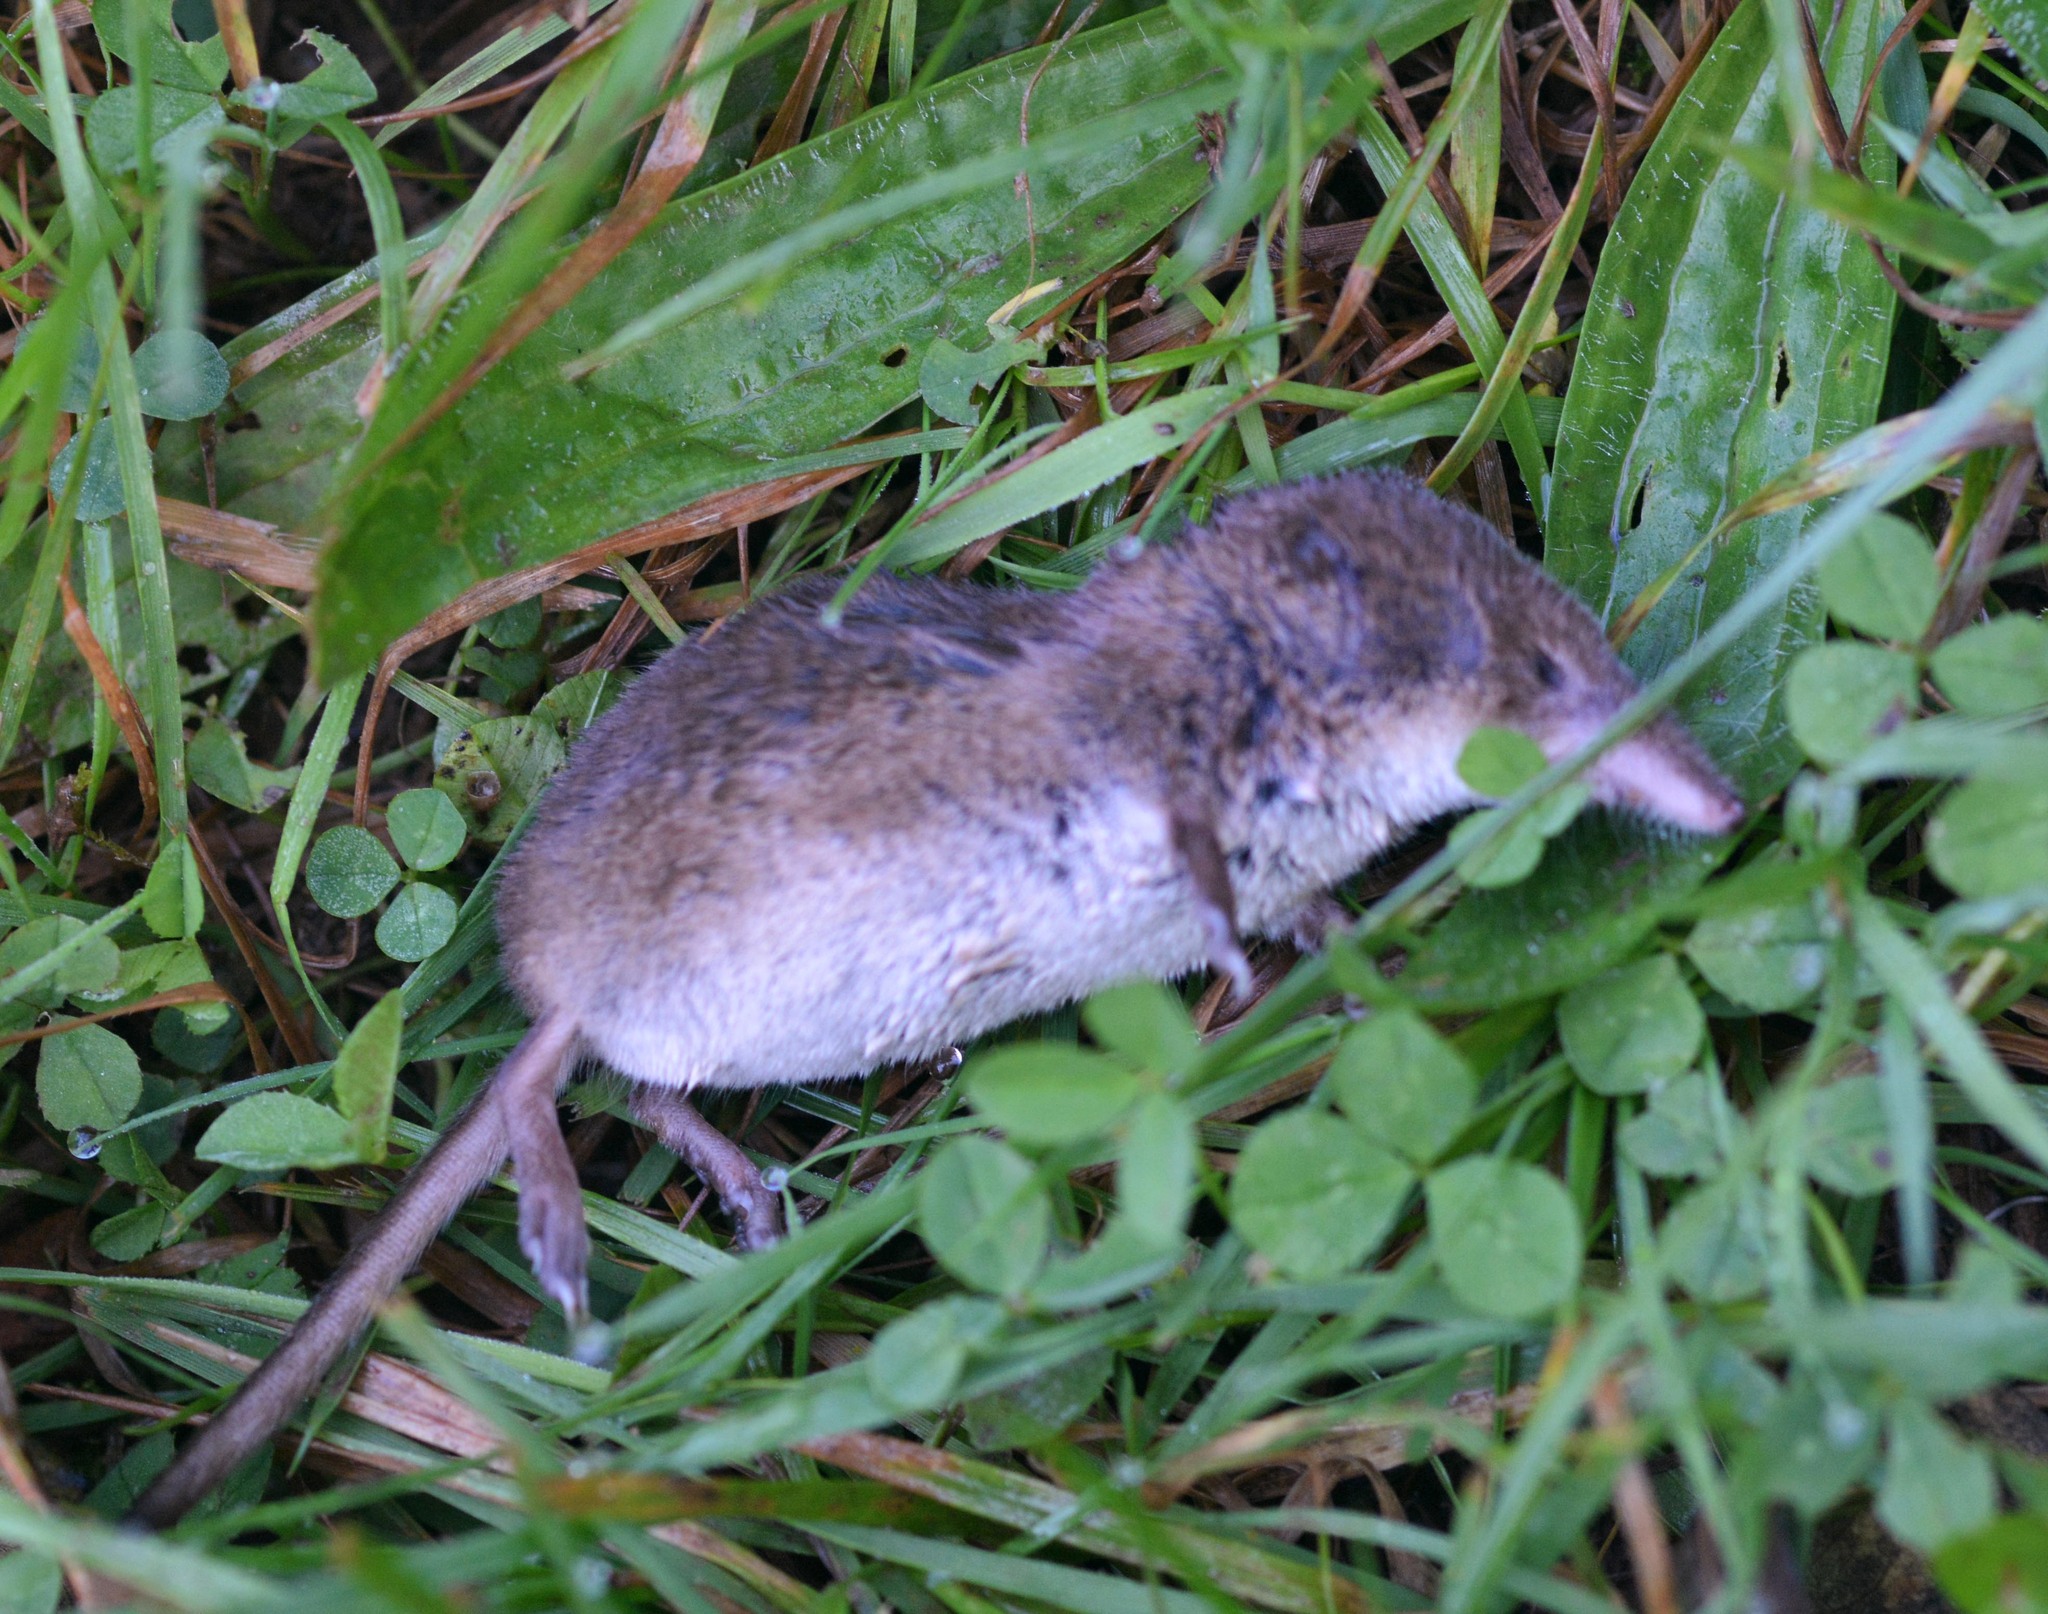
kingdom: Animalia
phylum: Chordata
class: Mammalia
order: Soricomorpha
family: Soricidae
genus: Sorex
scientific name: Sorex araneus
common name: Common shrew
